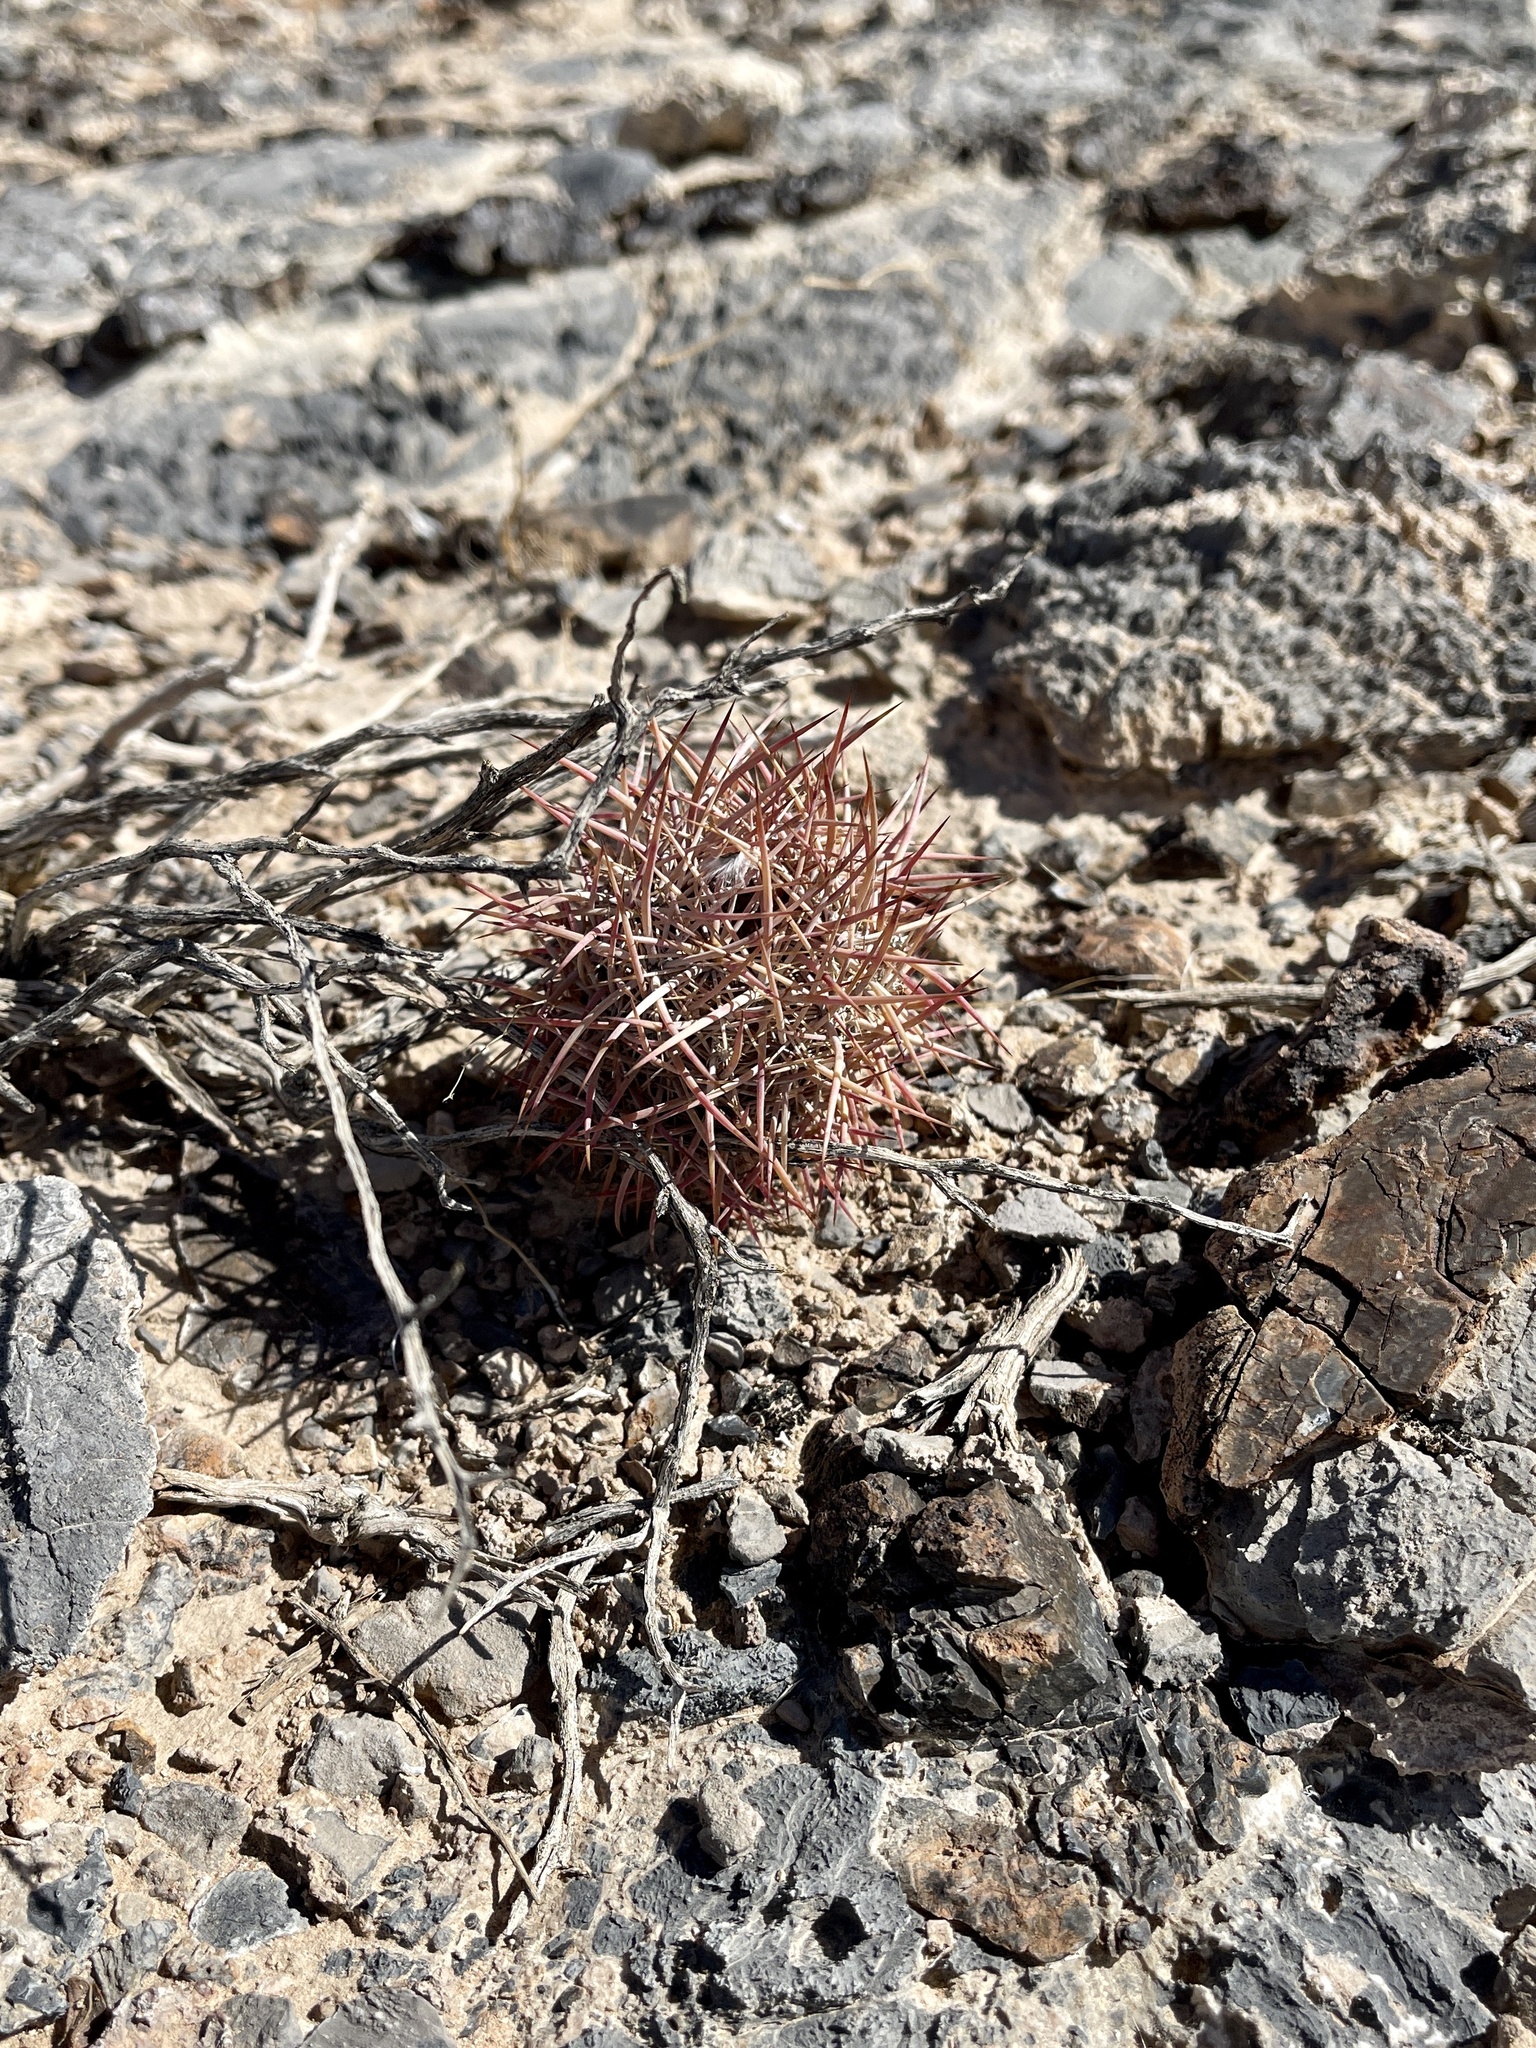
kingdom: Plantae
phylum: Tracheophyta
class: Magnoliopsida
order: Caryophyllales
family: Cactaceae
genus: Sclerocactus
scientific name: Sclerocactus johnsonii
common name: Eight-spine fishhook cactus
